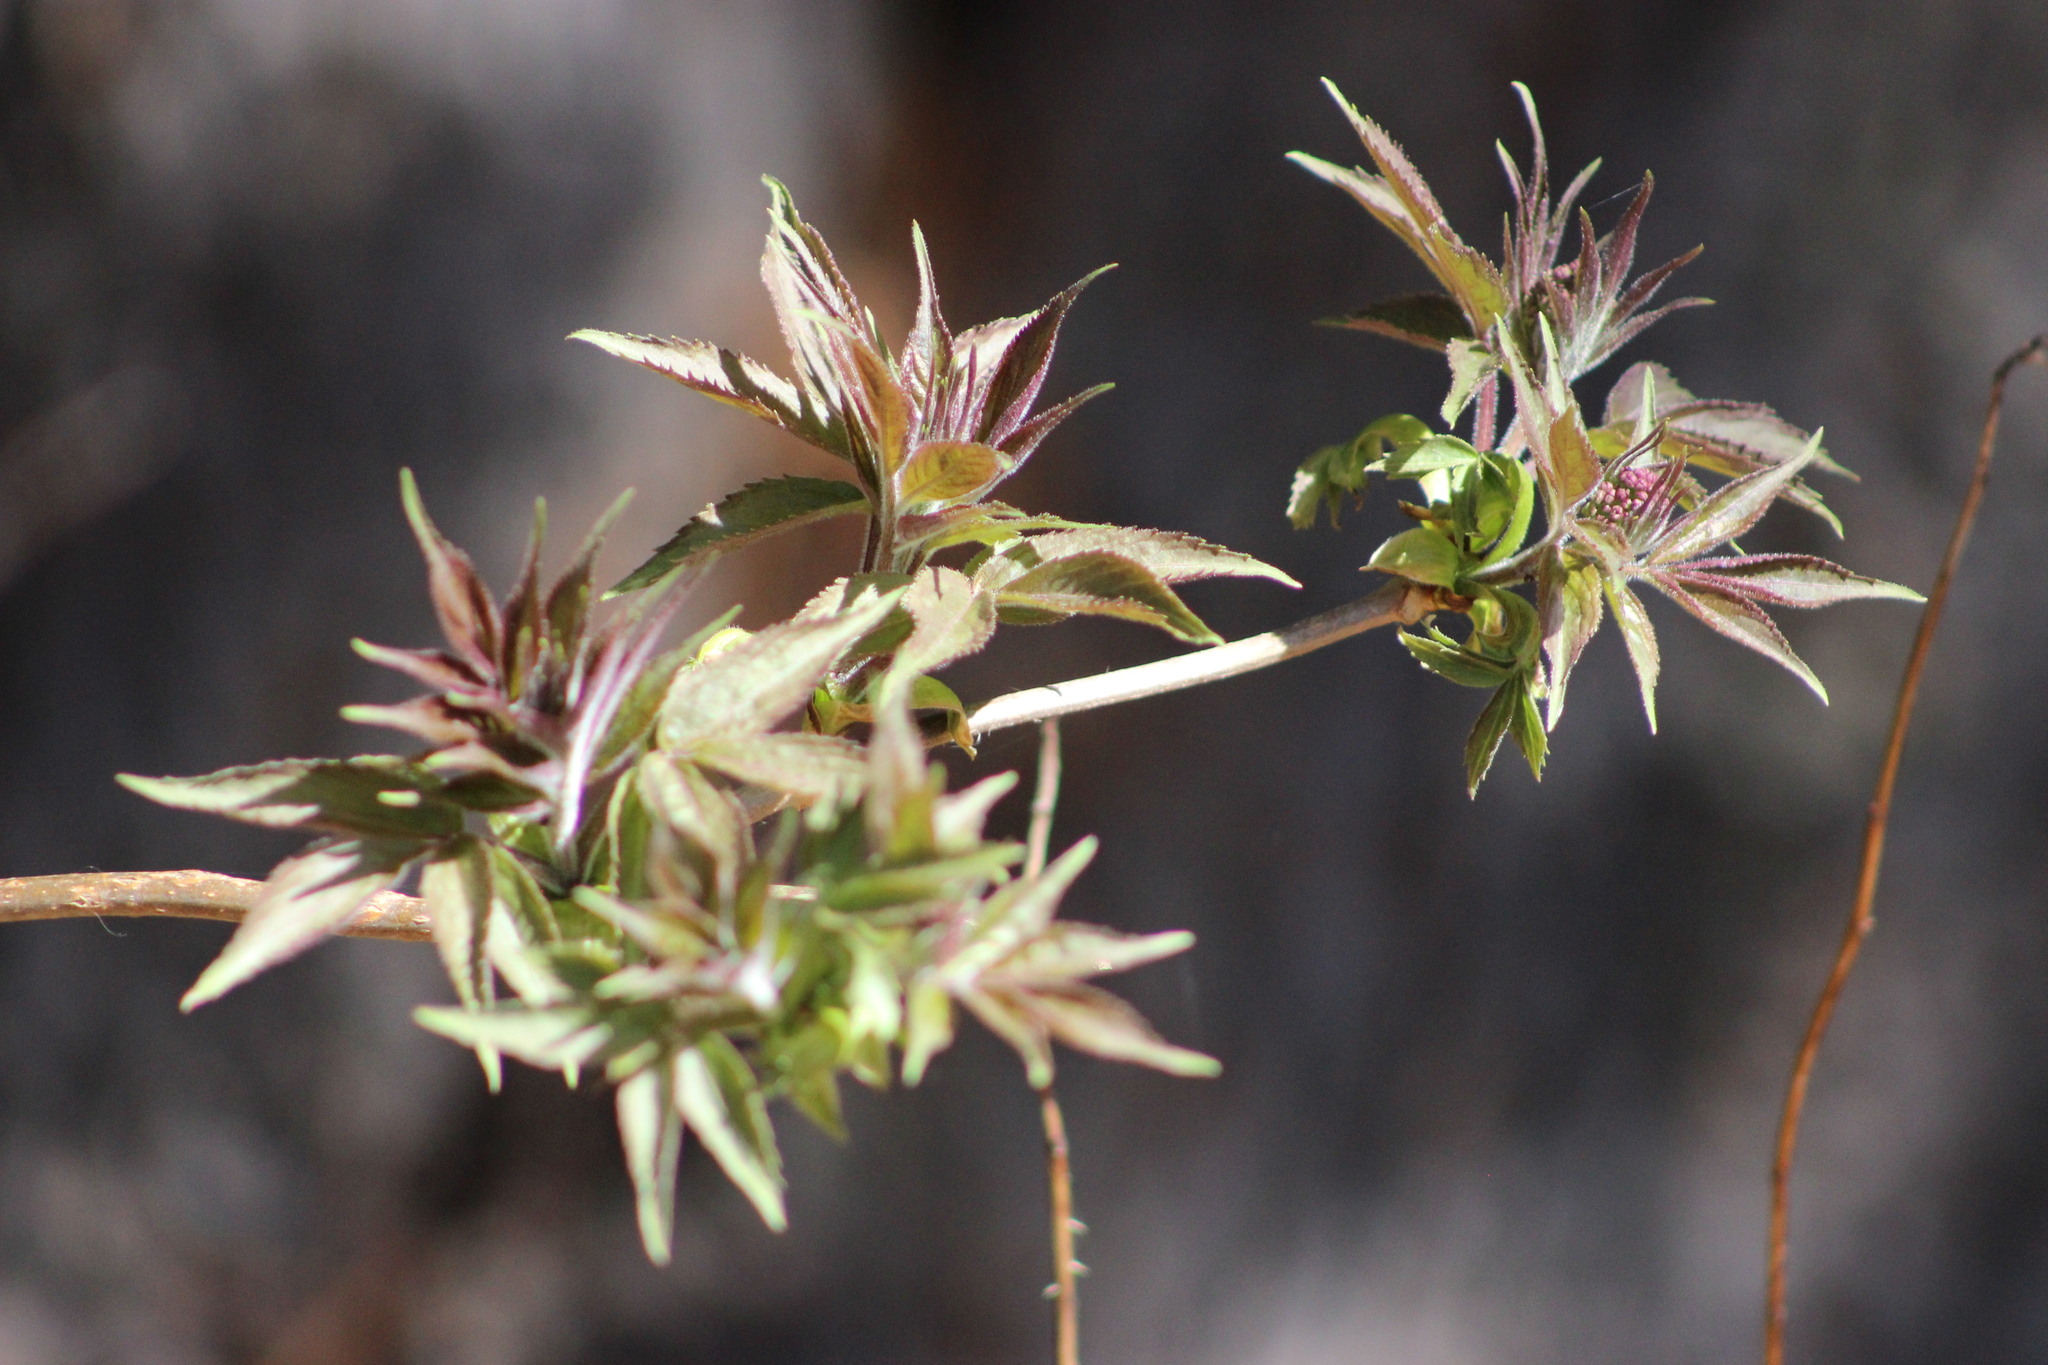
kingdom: Plantae
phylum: Tracheophyta
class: Magnoliopsida
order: Dipsacales
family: Viburnaceae
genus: Sambucus
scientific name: Sambucus sibirica
